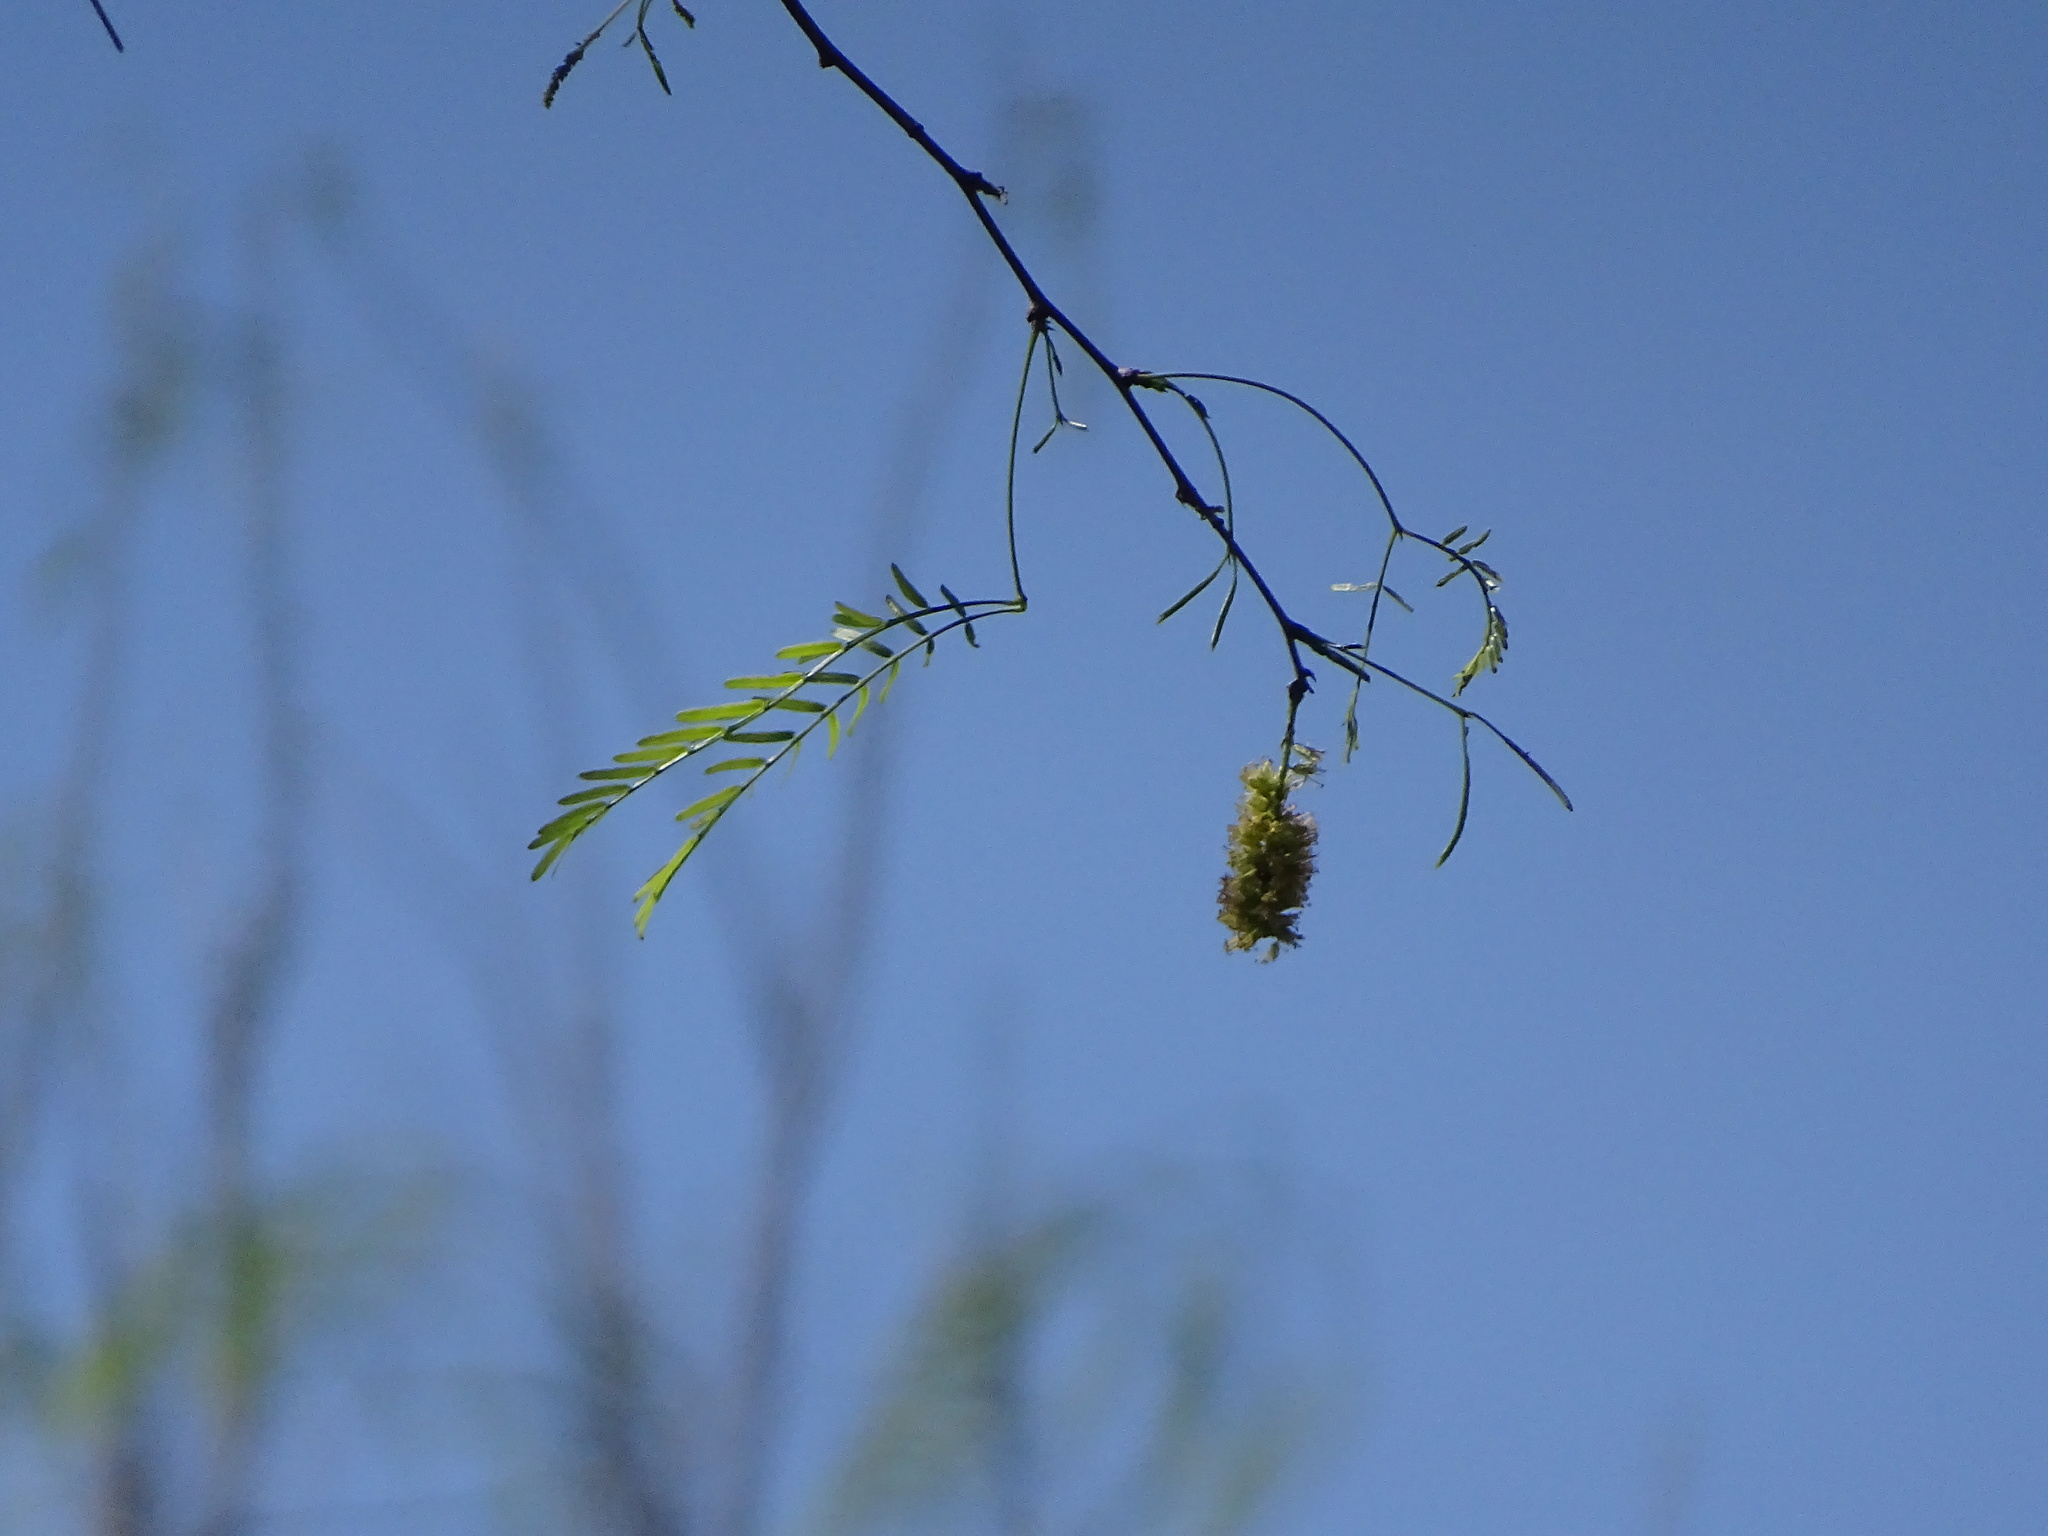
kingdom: Plantae
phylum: Tracheophyta
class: Magnoliopsida
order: Fabales
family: Fabaceae
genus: Prosopis
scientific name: Prosopis glandulosa
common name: Honey mesquite
